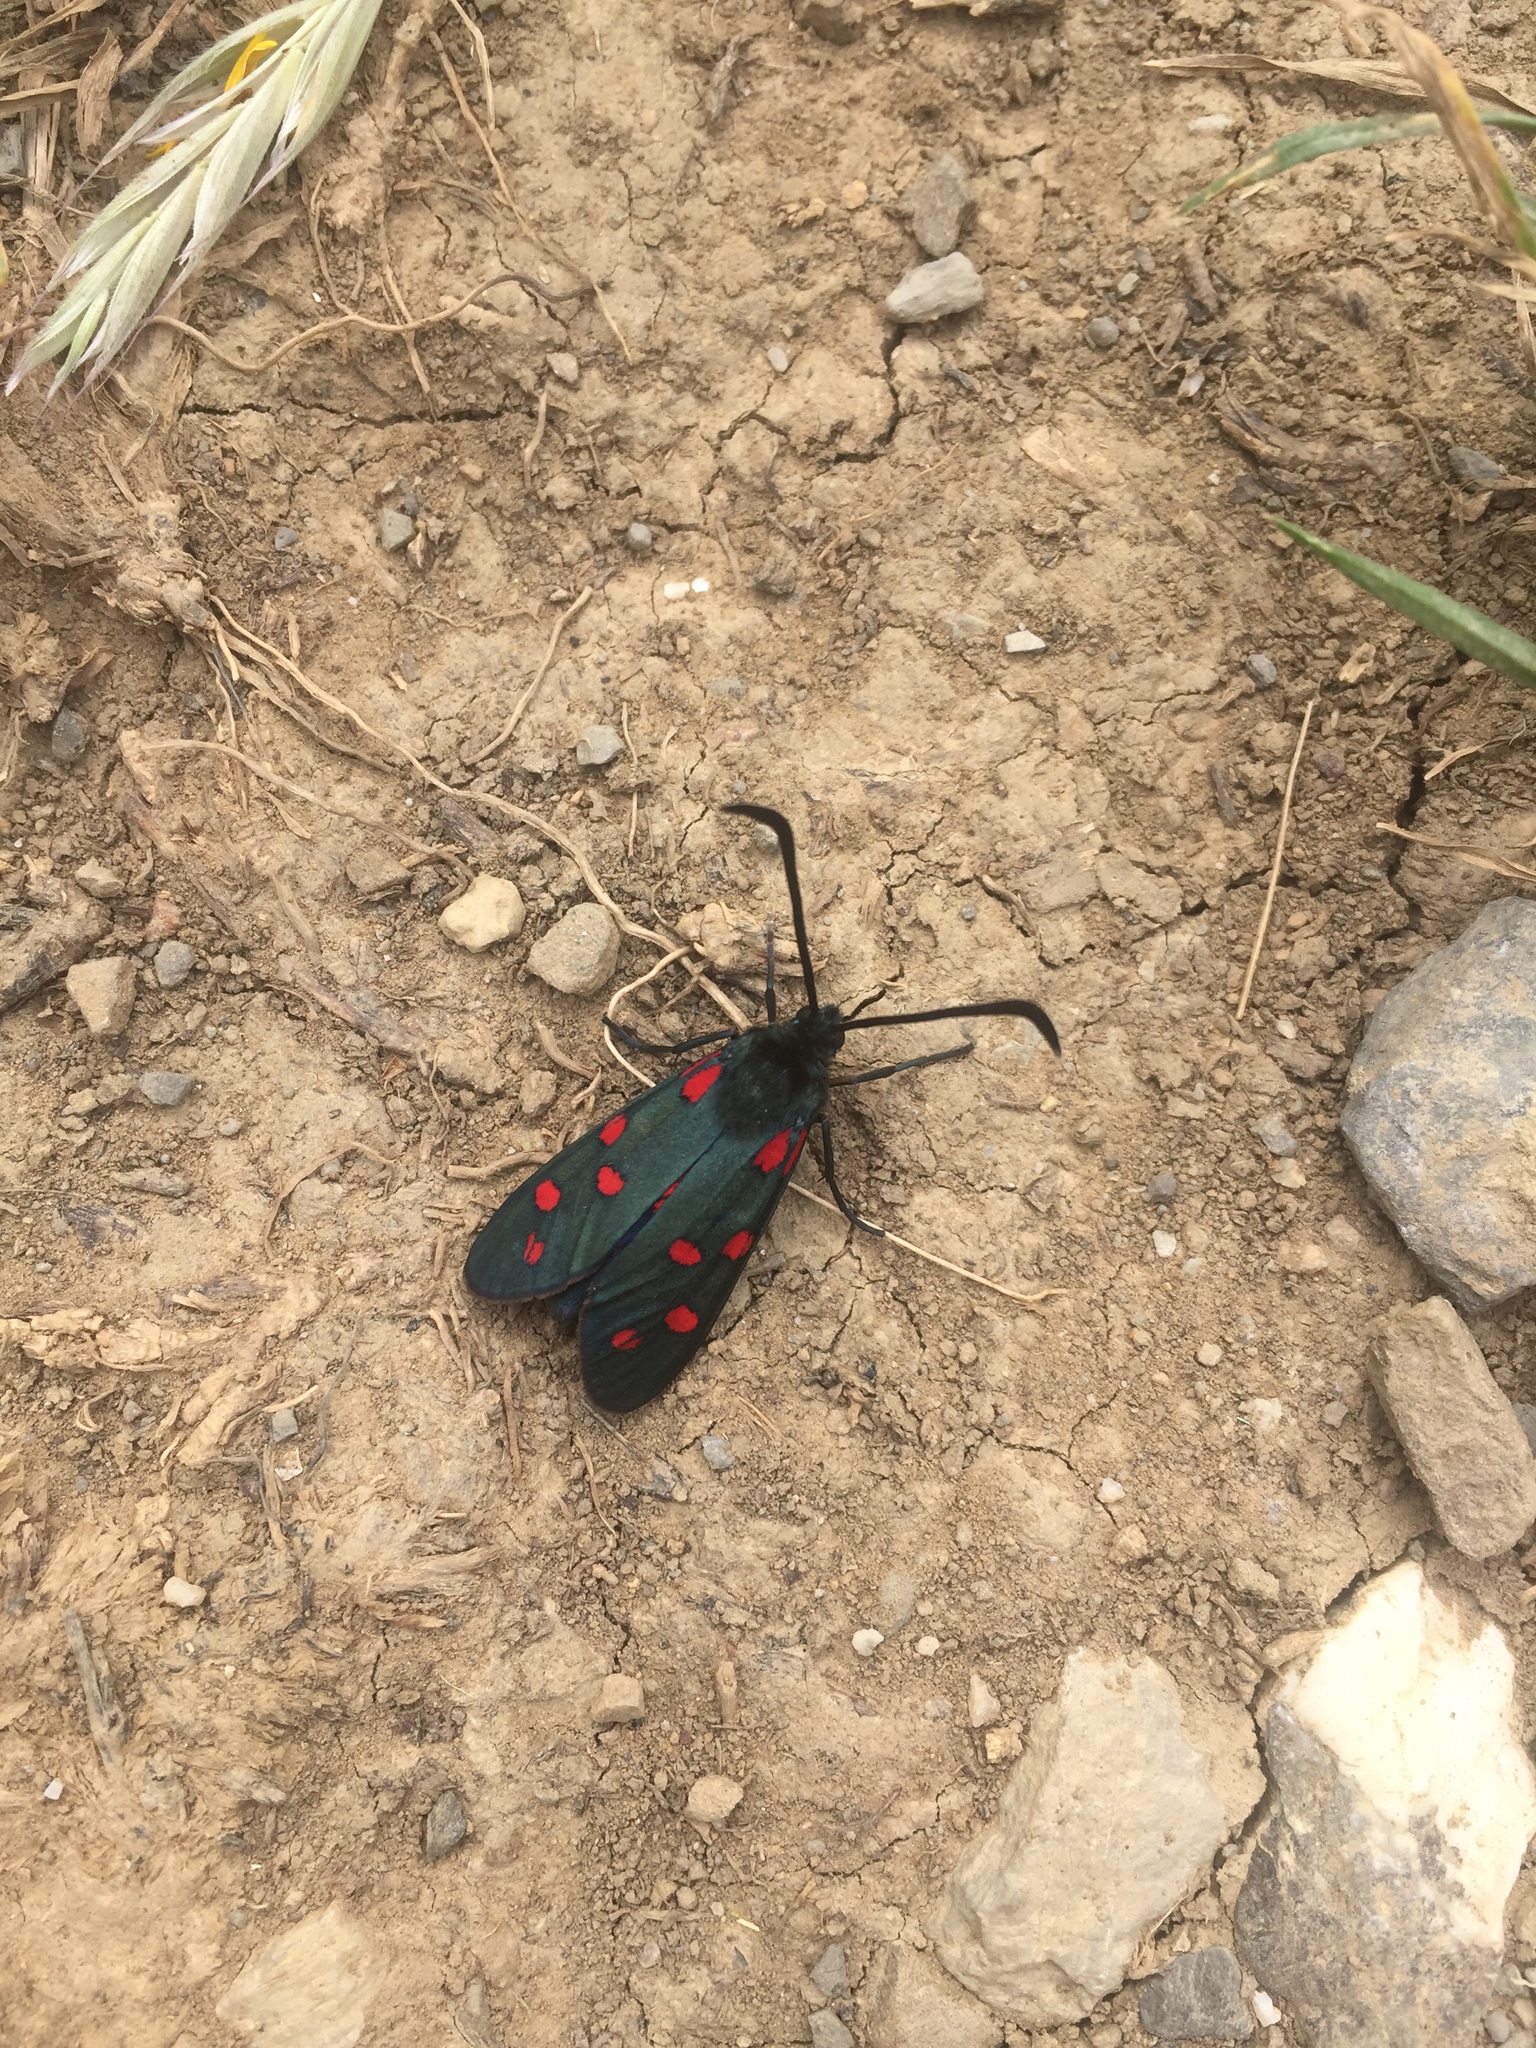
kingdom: Animalia
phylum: Arthropoda
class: Insecta
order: Lepidoptera
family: Zygaenidae
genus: Zygaena
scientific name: Zygaena transalpina
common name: Southern six spot burnet
